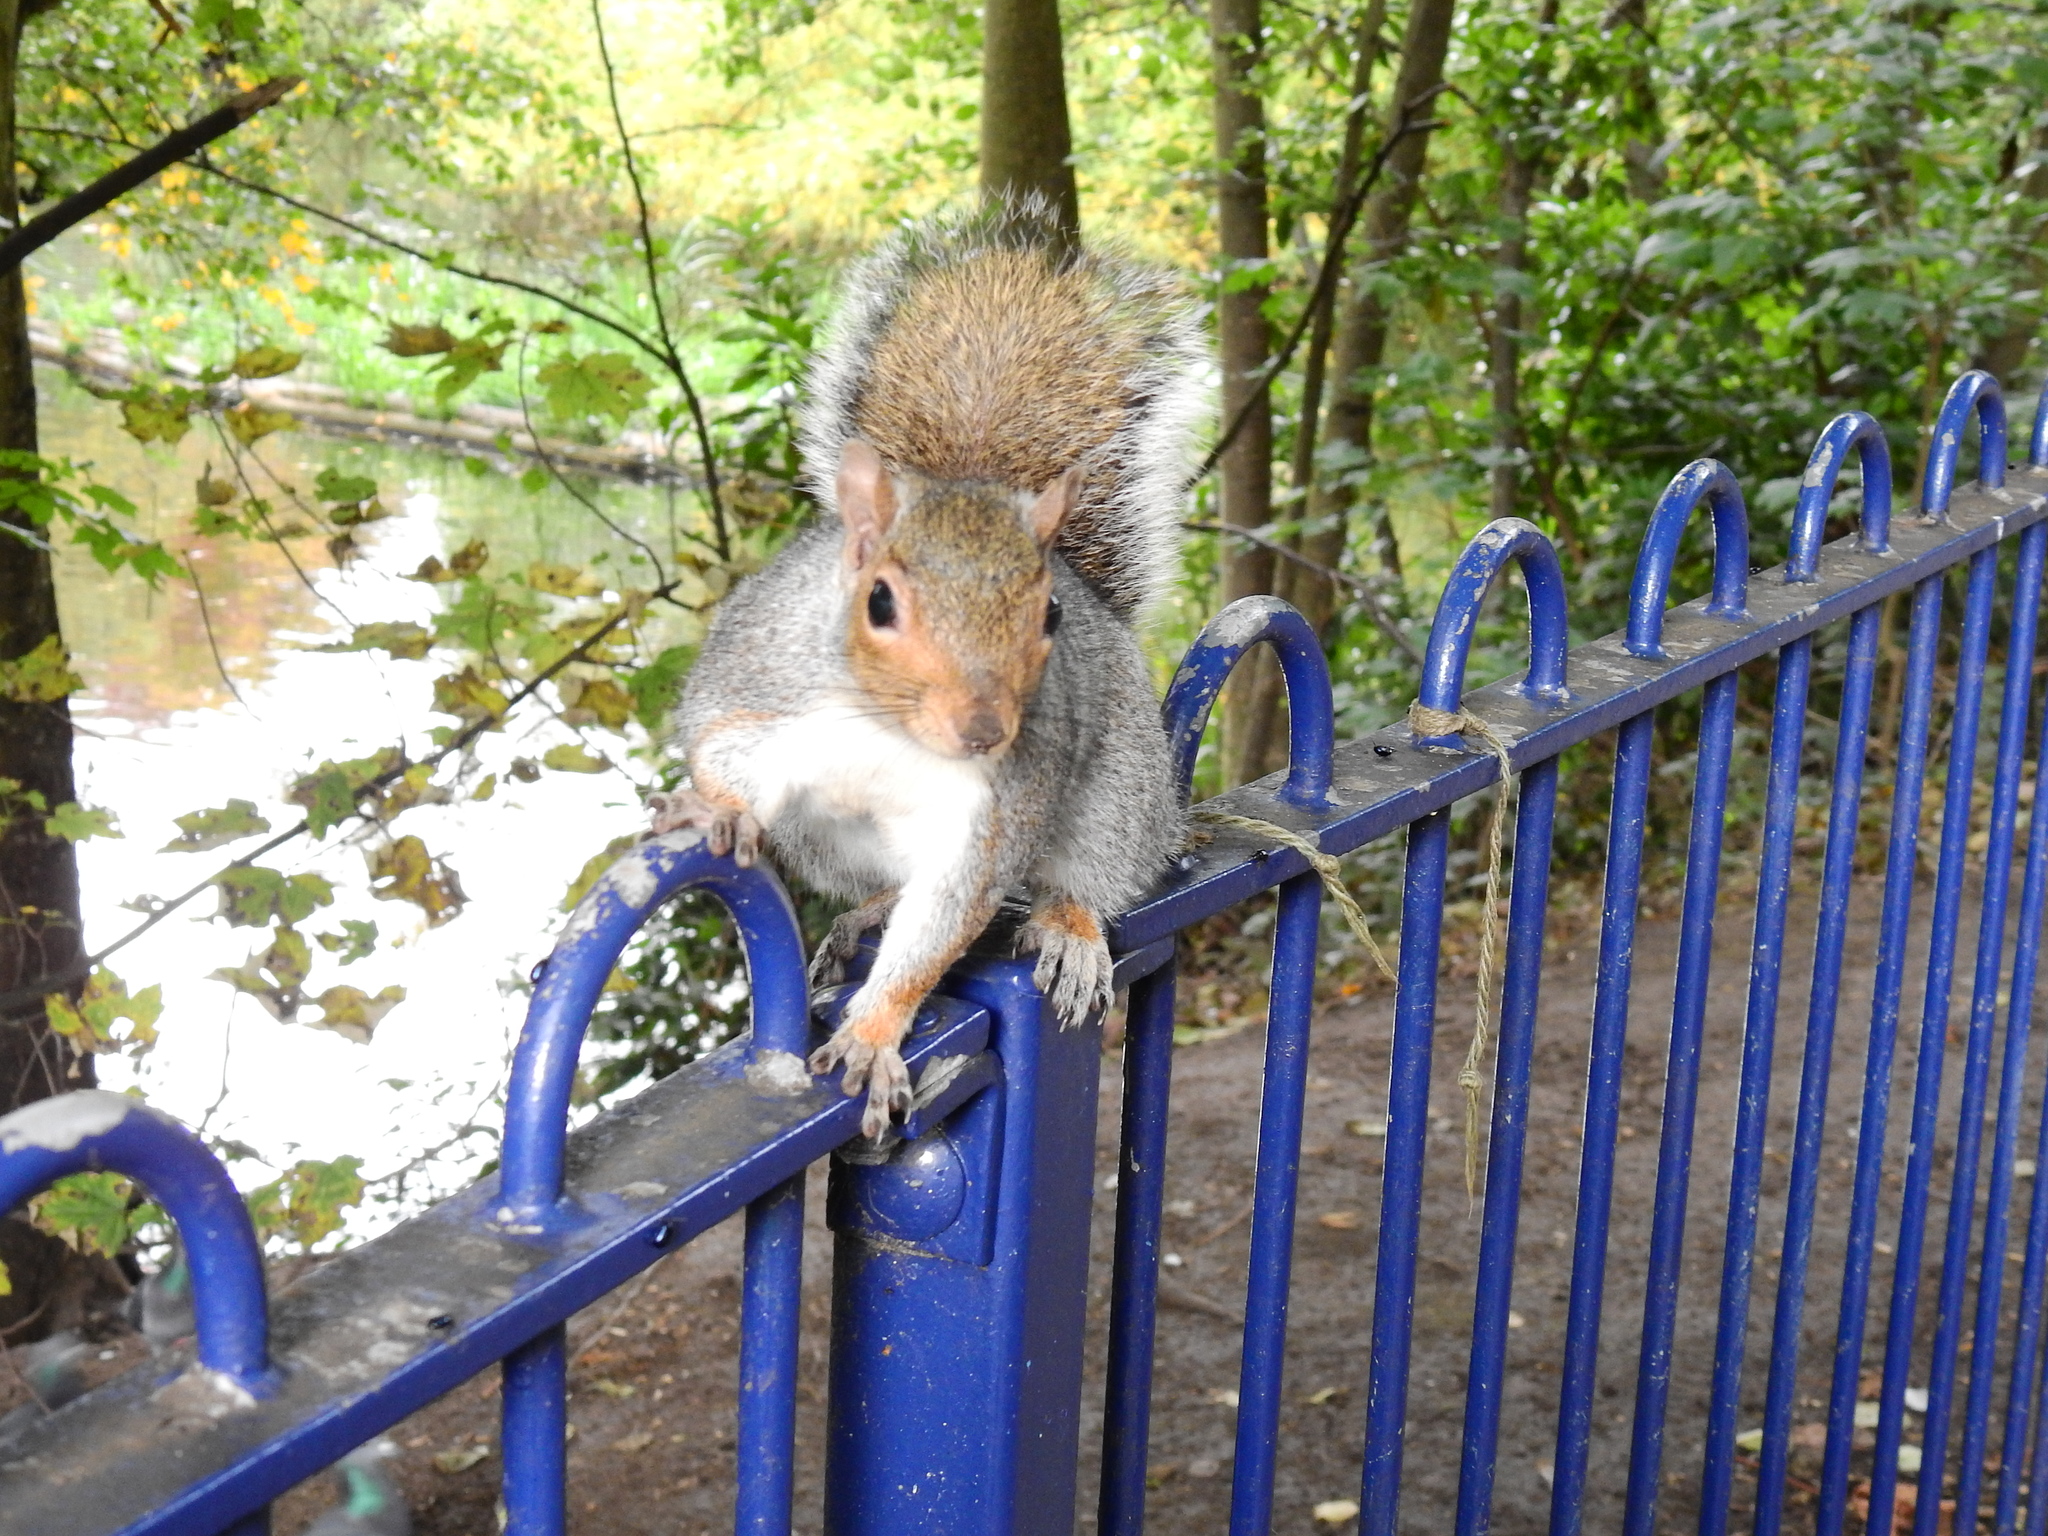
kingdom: Animalia
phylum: Chordata
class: Mammalia
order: Rodentia
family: Sciuridae
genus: Sciurus
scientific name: Sciurus carolinensis
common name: Eastern gray squirrel
